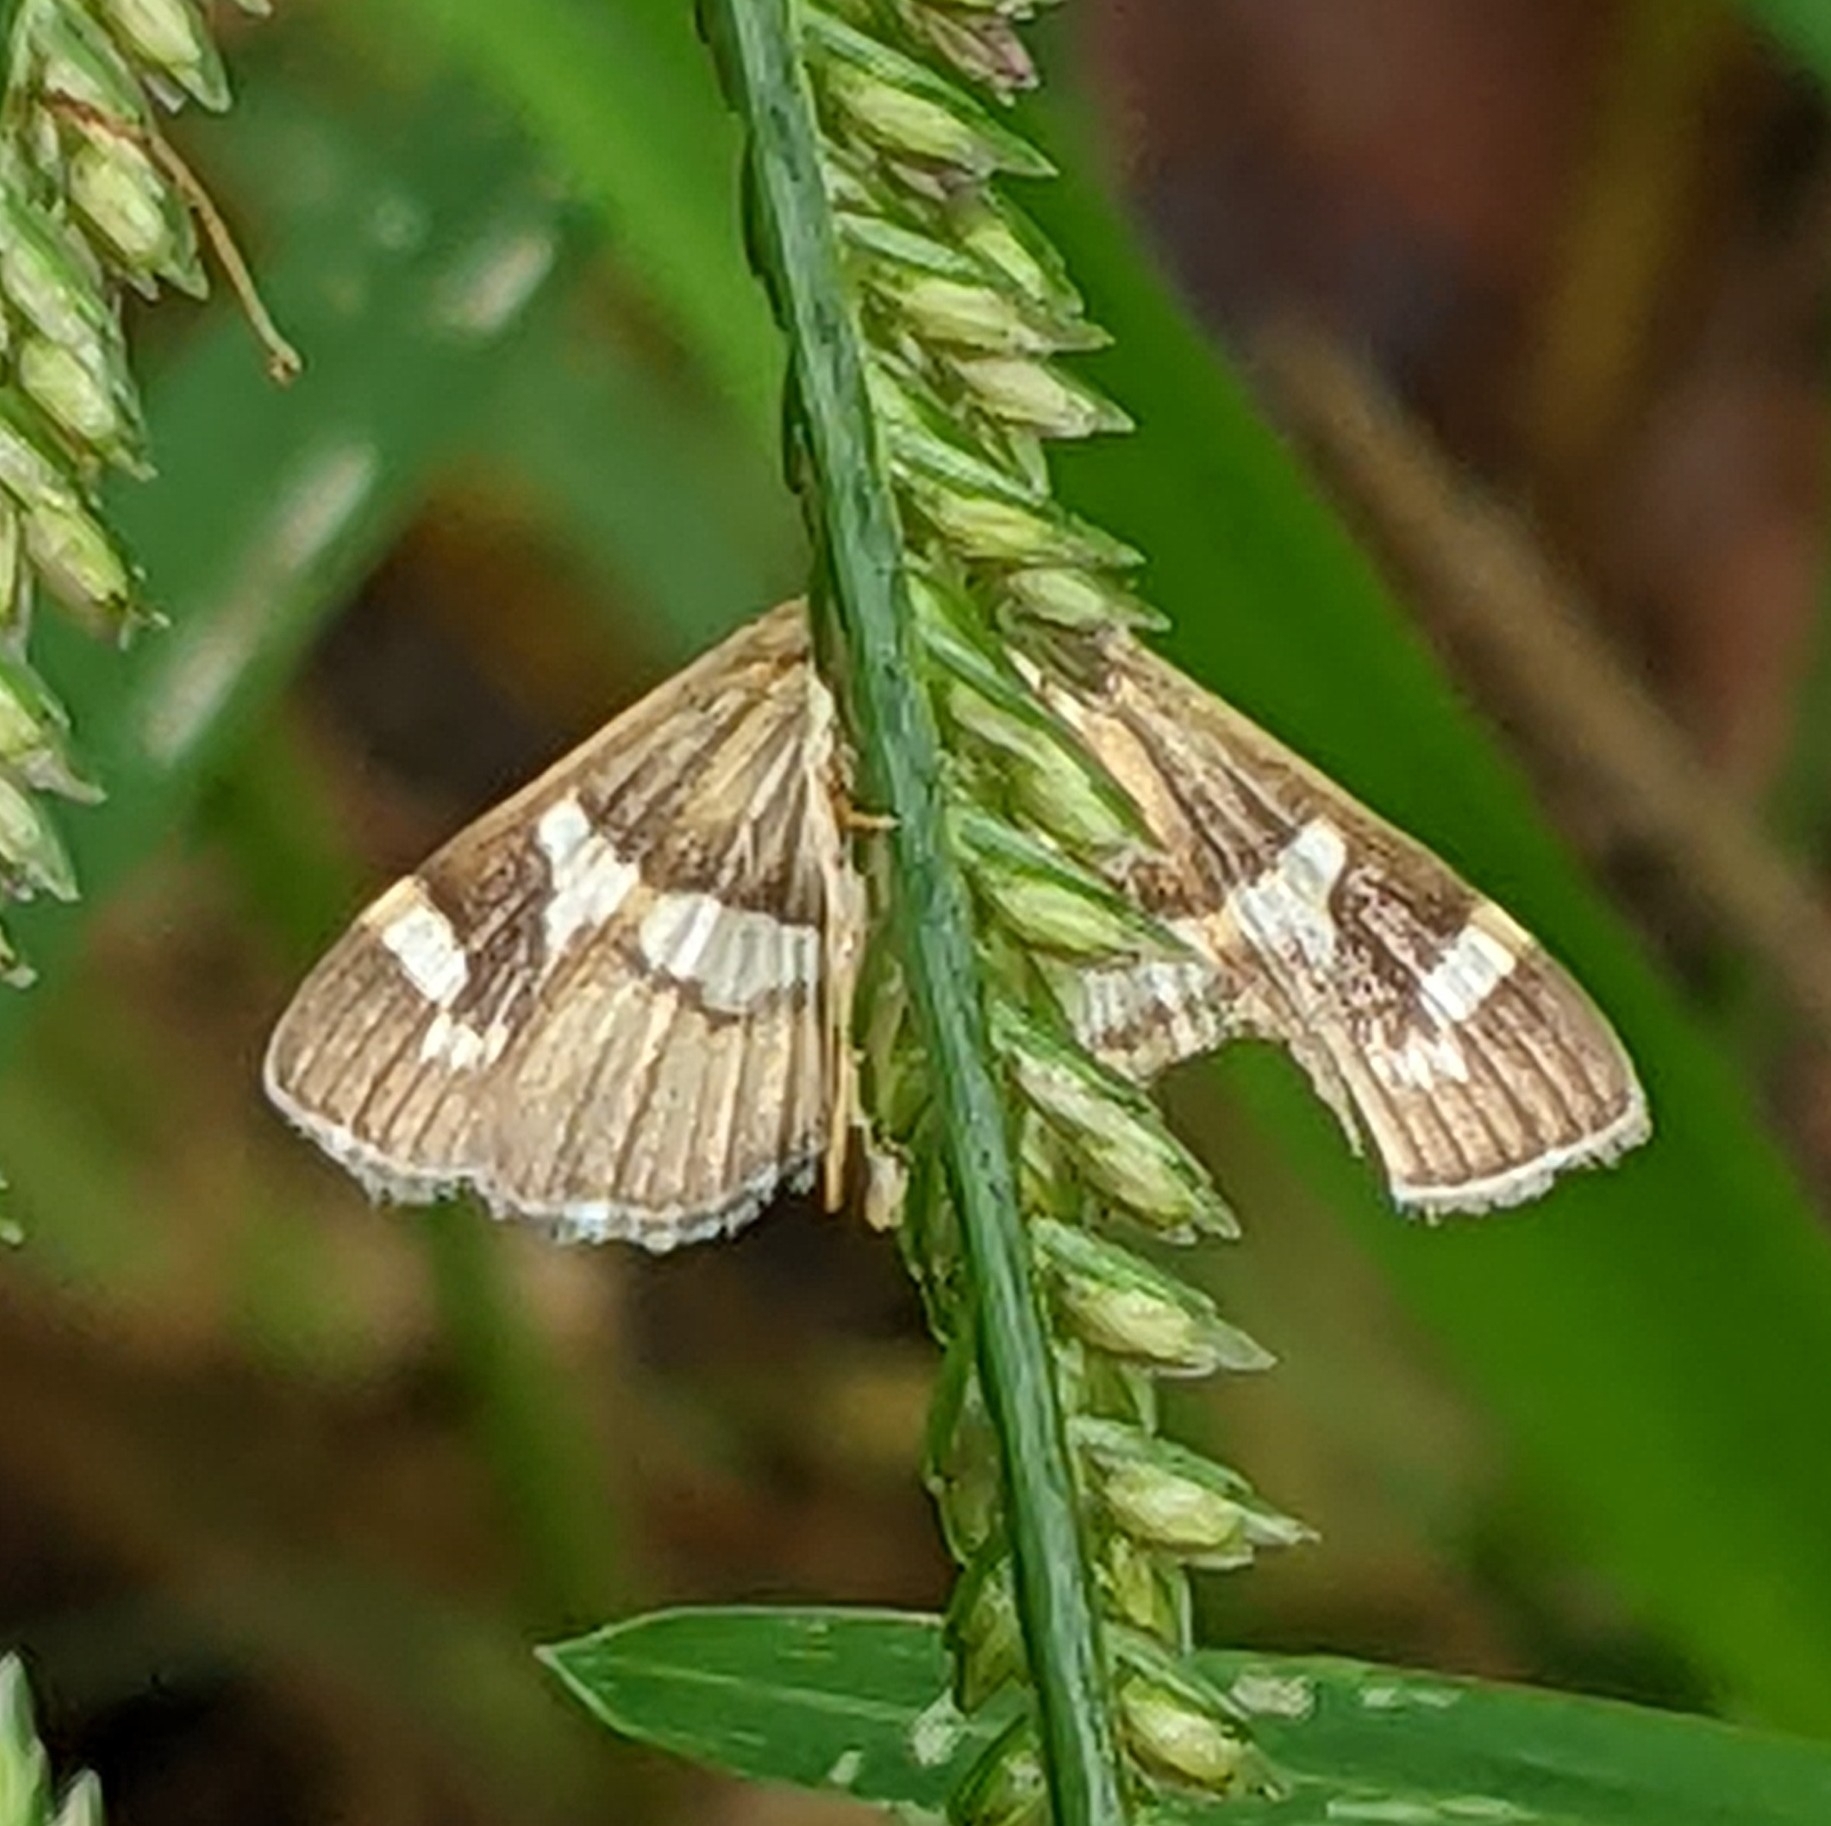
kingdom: Animalia
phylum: Arthropoda
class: Insecta
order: Lepidoptera
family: Crambidae
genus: Spoladea
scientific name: Spoladea recurvalis
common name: Beet webworm moth
